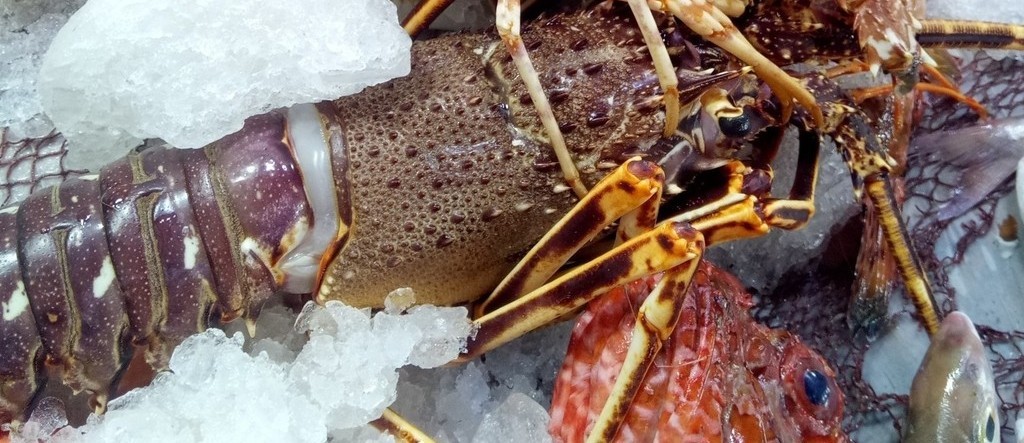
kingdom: Animalia
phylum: Arthropoda
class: Malacostraca
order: Decapoda
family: Palinuridae
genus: Palinurus
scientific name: Palinurus elephas
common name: European spiny lobster
